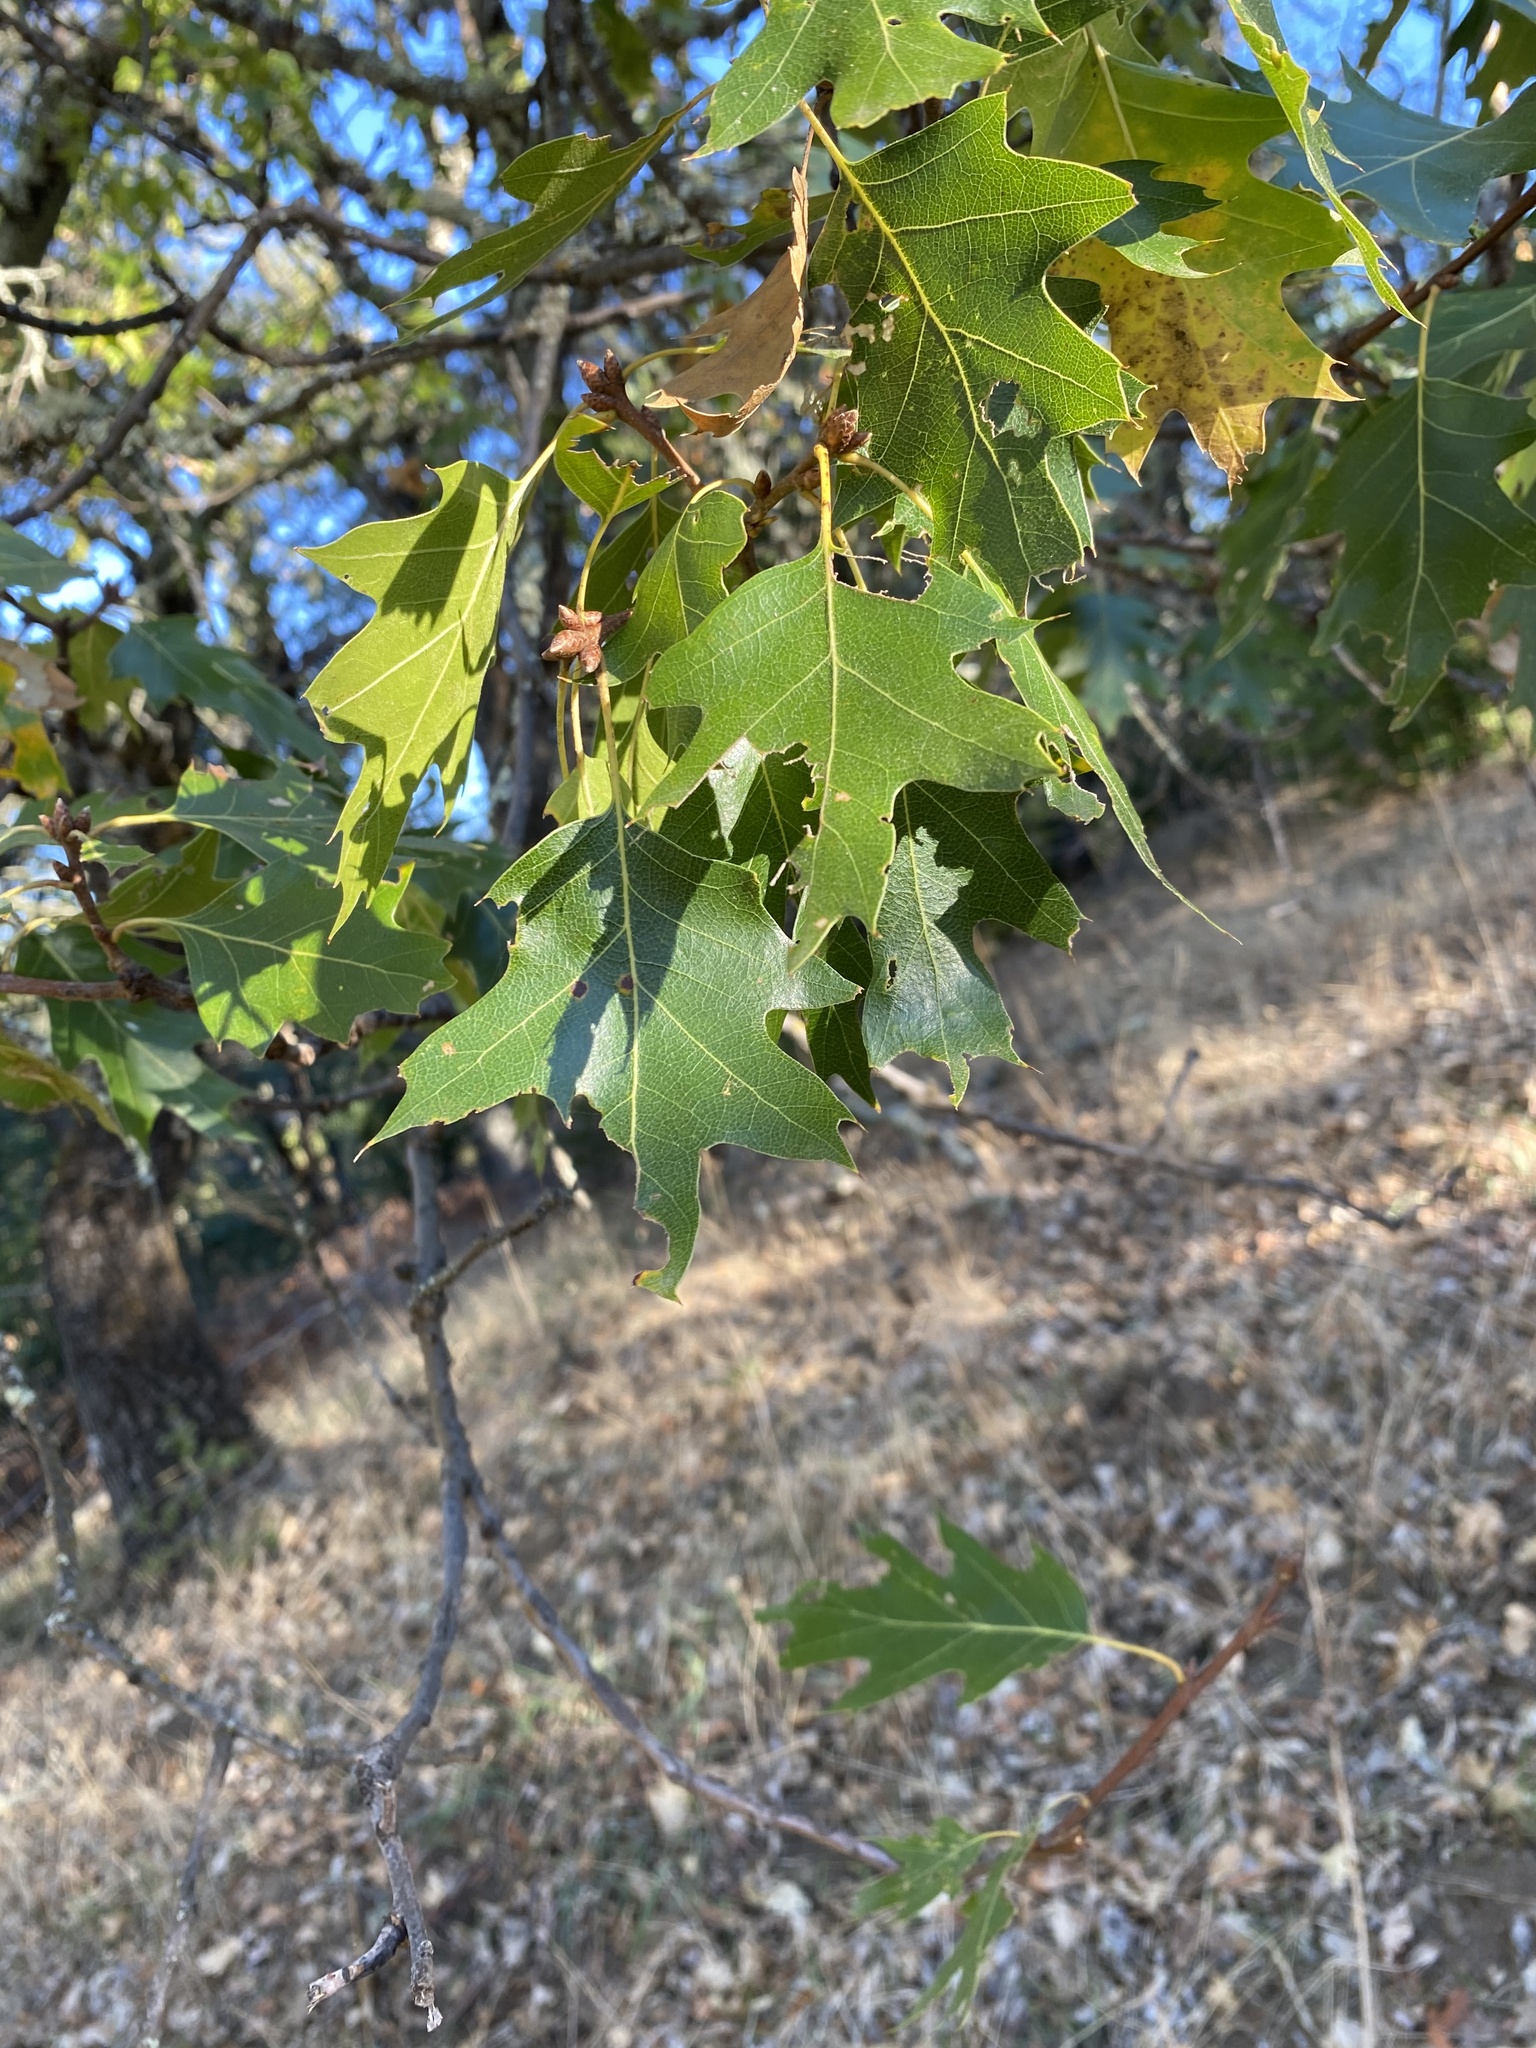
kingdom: Plantae
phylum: Tracheophyta
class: Magnoliopsida
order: Fagales
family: Fagaceae
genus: Quercus
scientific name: Quercus kelloggii
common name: California black oak
